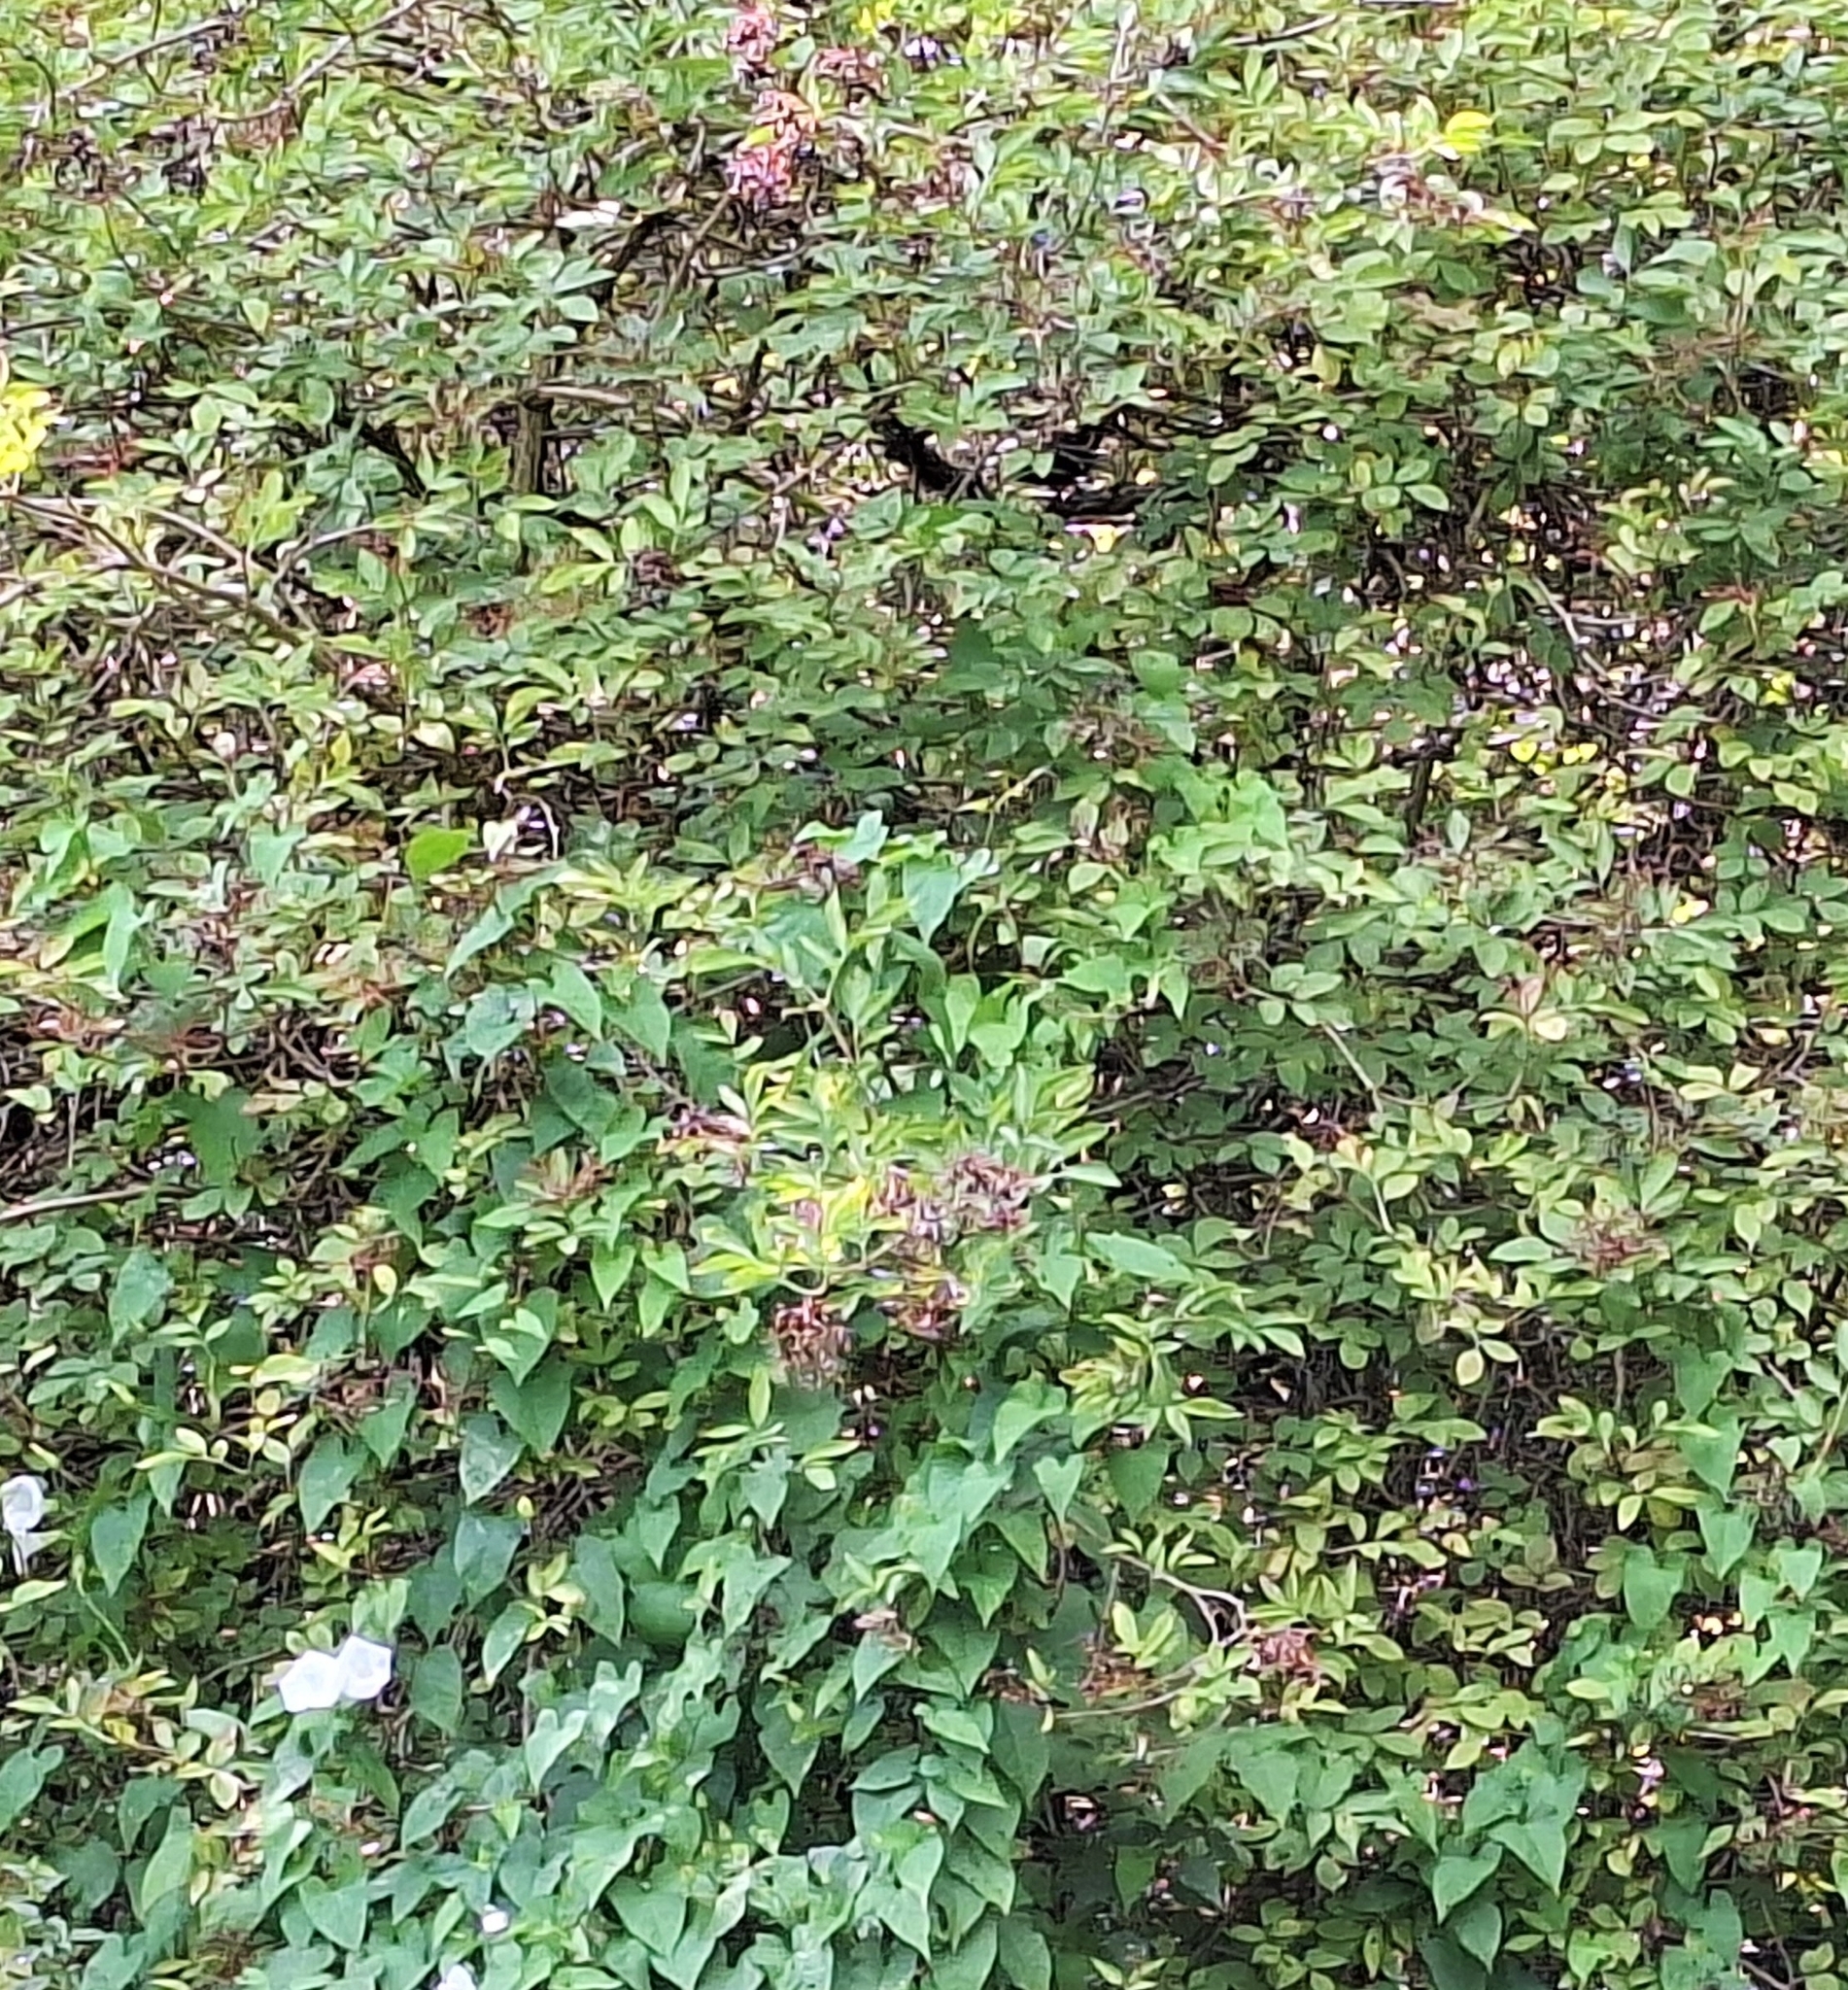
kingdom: Plantae
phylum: Tracheophyta
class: Magnoliopsida
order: Dipsacales
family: Viburnaceae
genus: Sambucus
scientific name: Sambucus nigra
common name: Elder
